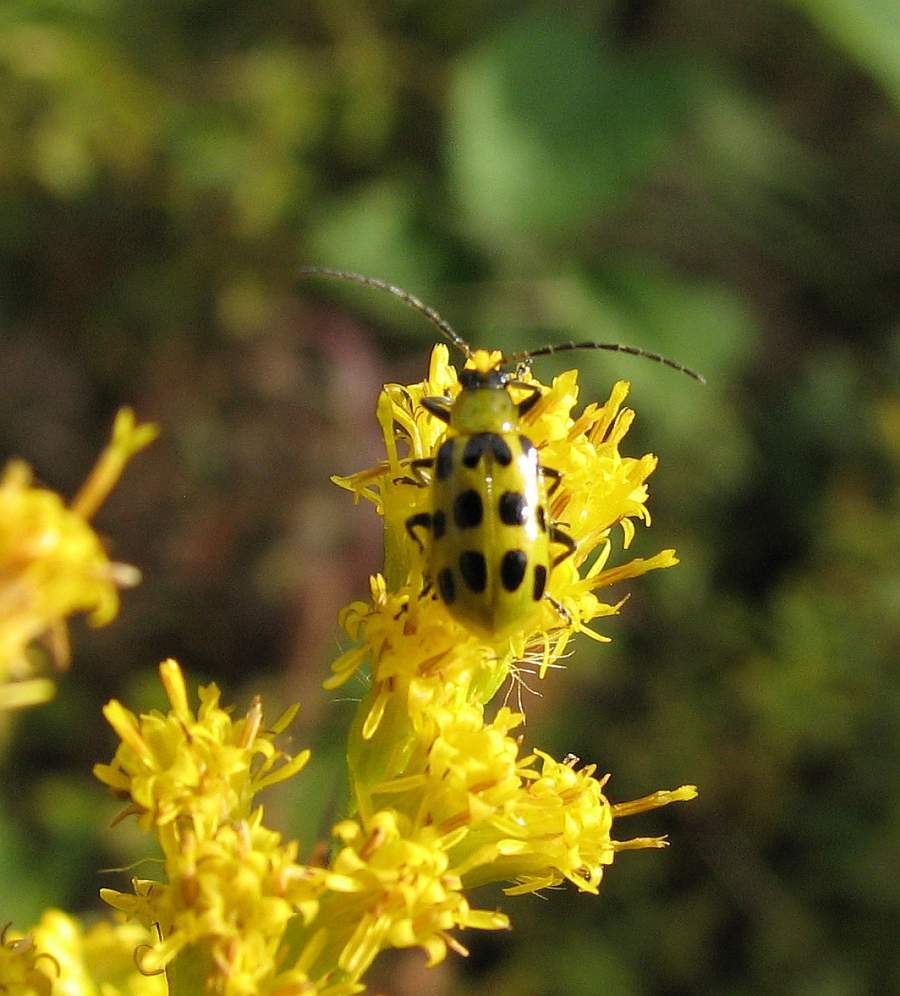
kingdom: Animalia
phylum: Arthropoda
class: Insecta
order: Coleoptera
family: Chrysomelidae
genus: Diabrotica
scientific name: Diabrotica undecimpunctata
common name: Spotted cucumber beetle
